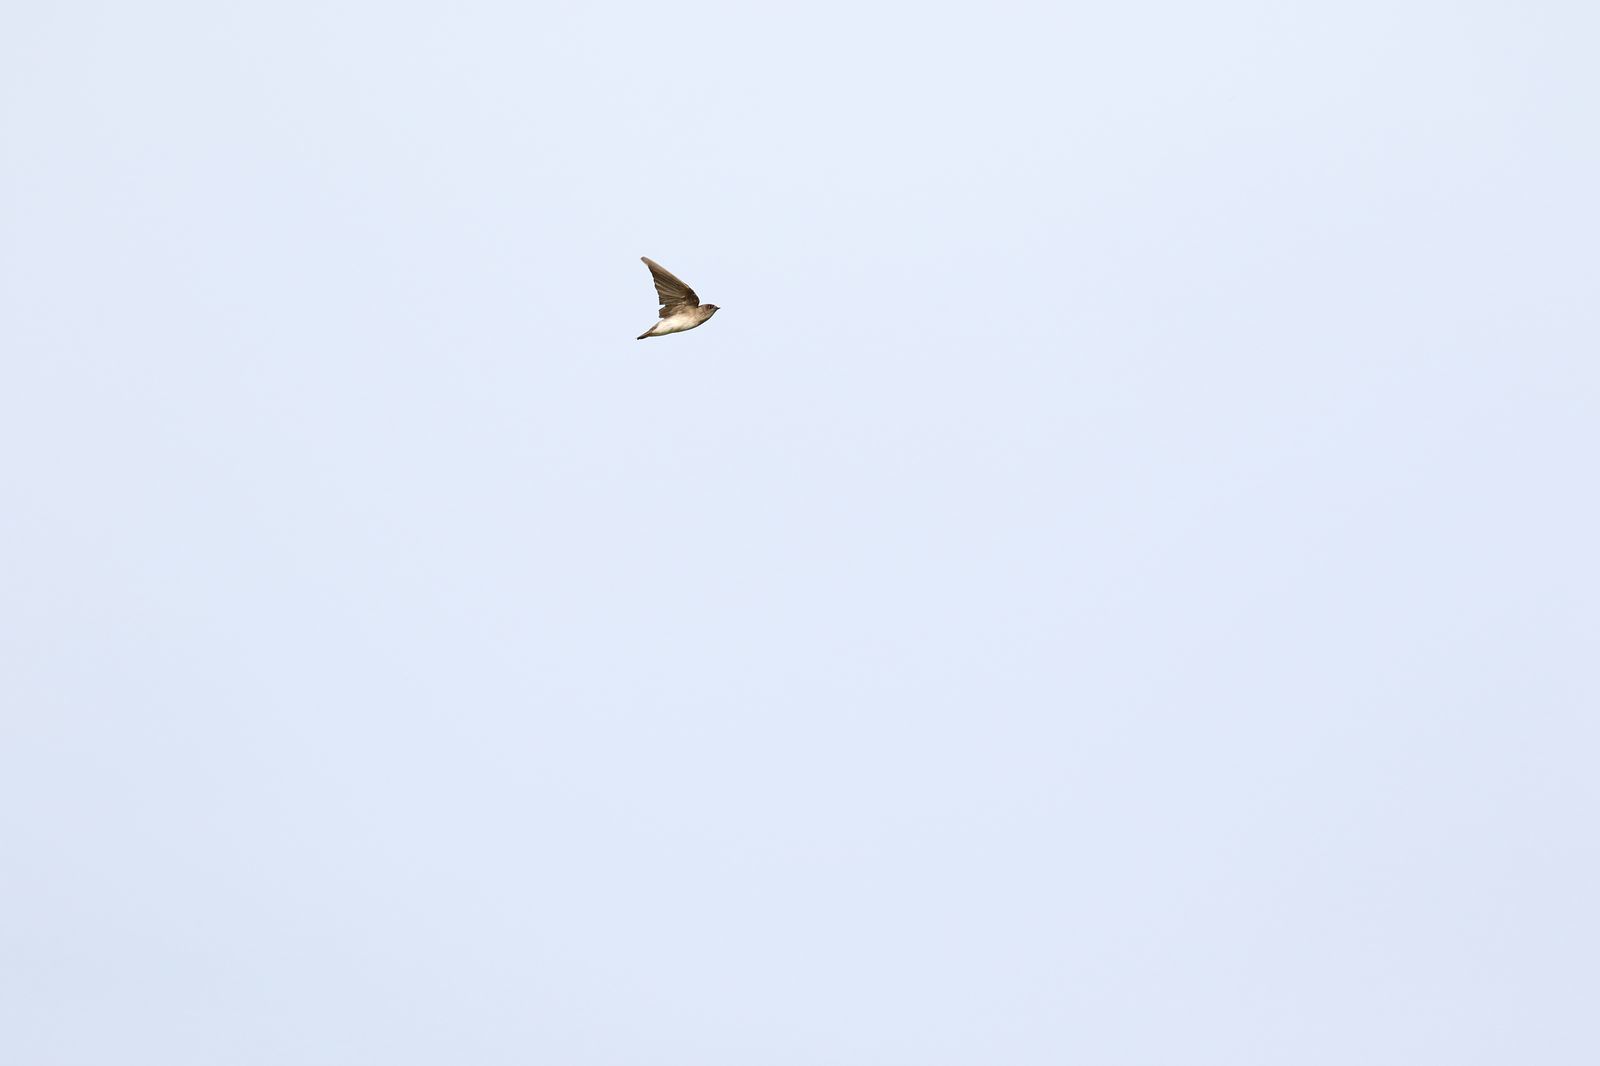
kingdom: Animalia
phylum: Chordata
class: Aves
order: Passeriformes
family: Hirundinidae
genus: Riparia
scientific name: Riparia chinensis
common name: Gray-throated martin
